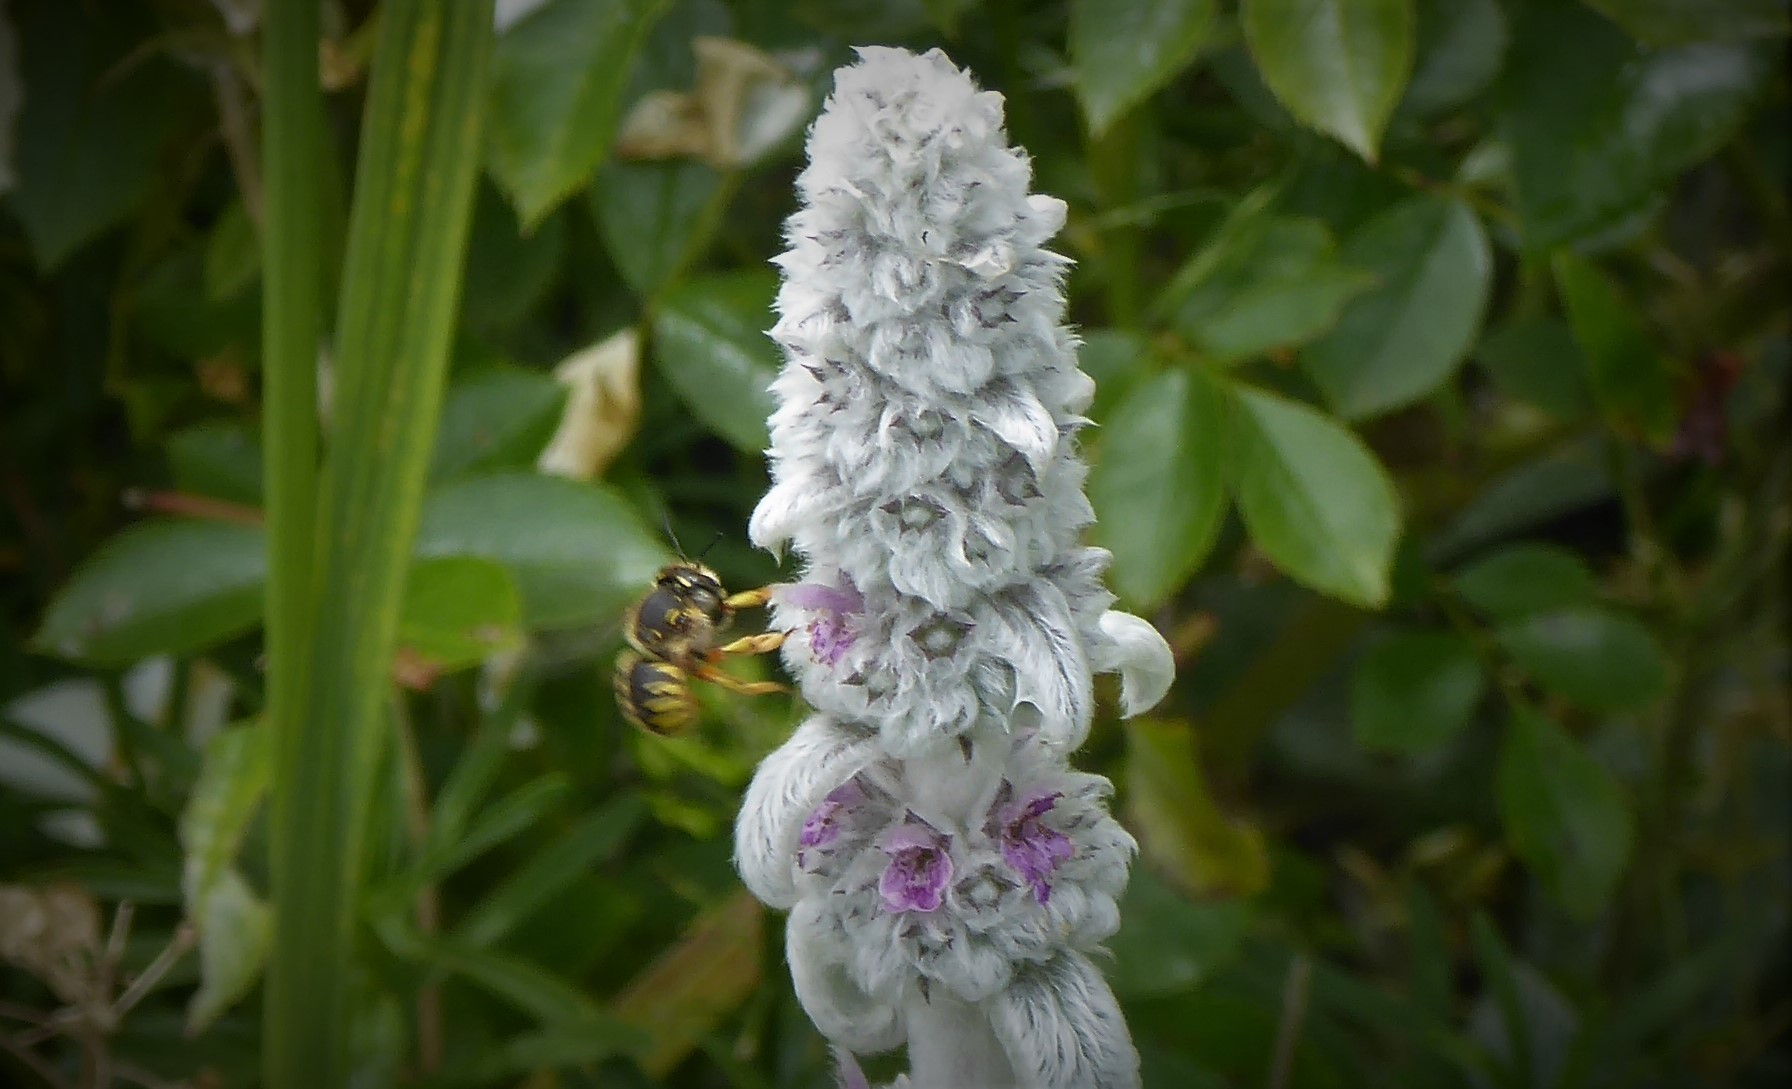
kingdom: Animalia
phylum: Arthropoda
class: Insecta
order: Hymenoptera
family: Megachilidae
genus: Anthidium
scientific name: Anthidium manicatum
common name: Wool carder bee
